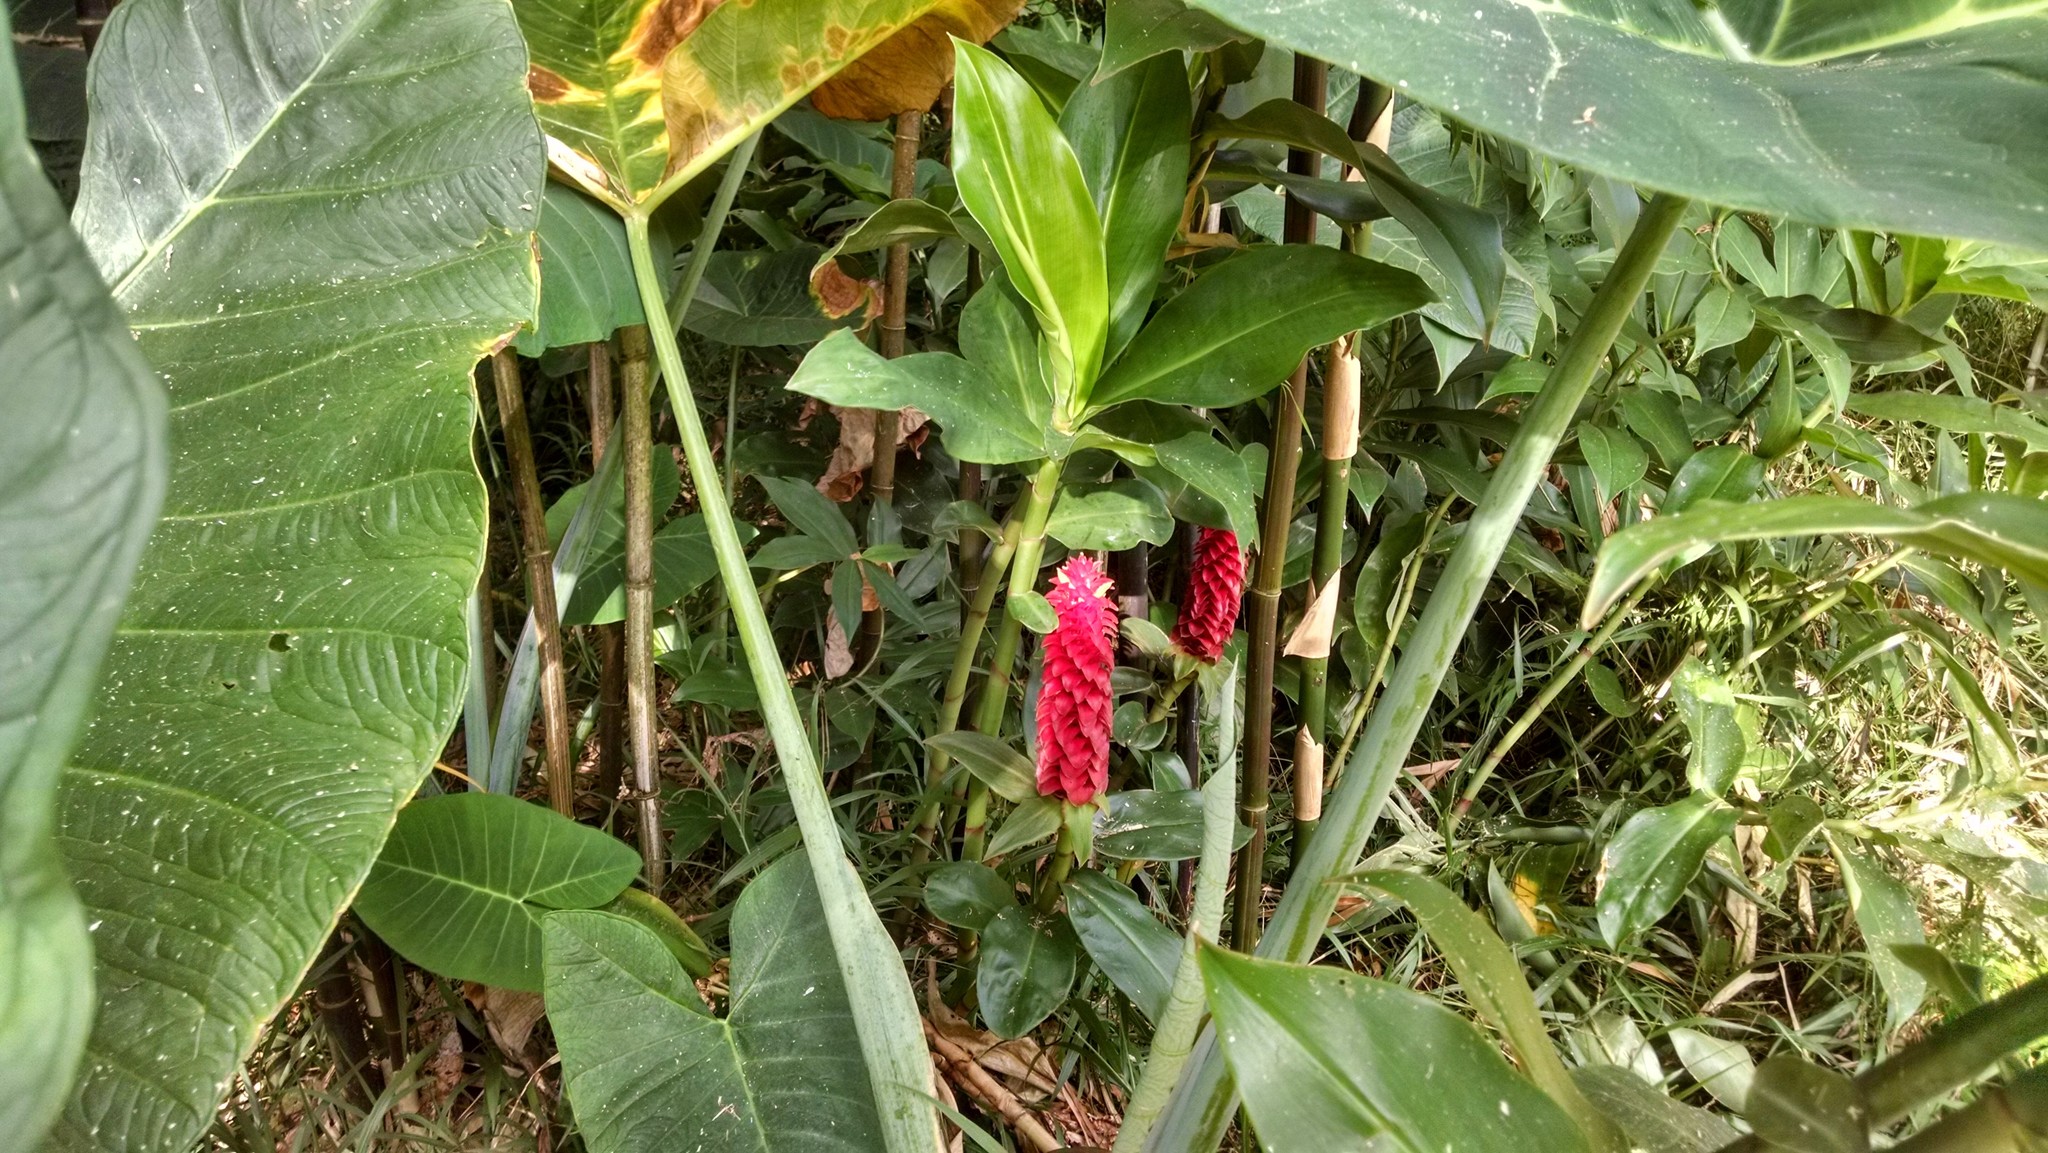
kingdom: Plantae
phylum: Tracheophyta
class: Liliopsida
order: Zingiberales
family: Costaceae
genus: Costus
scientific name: Costus comosus
